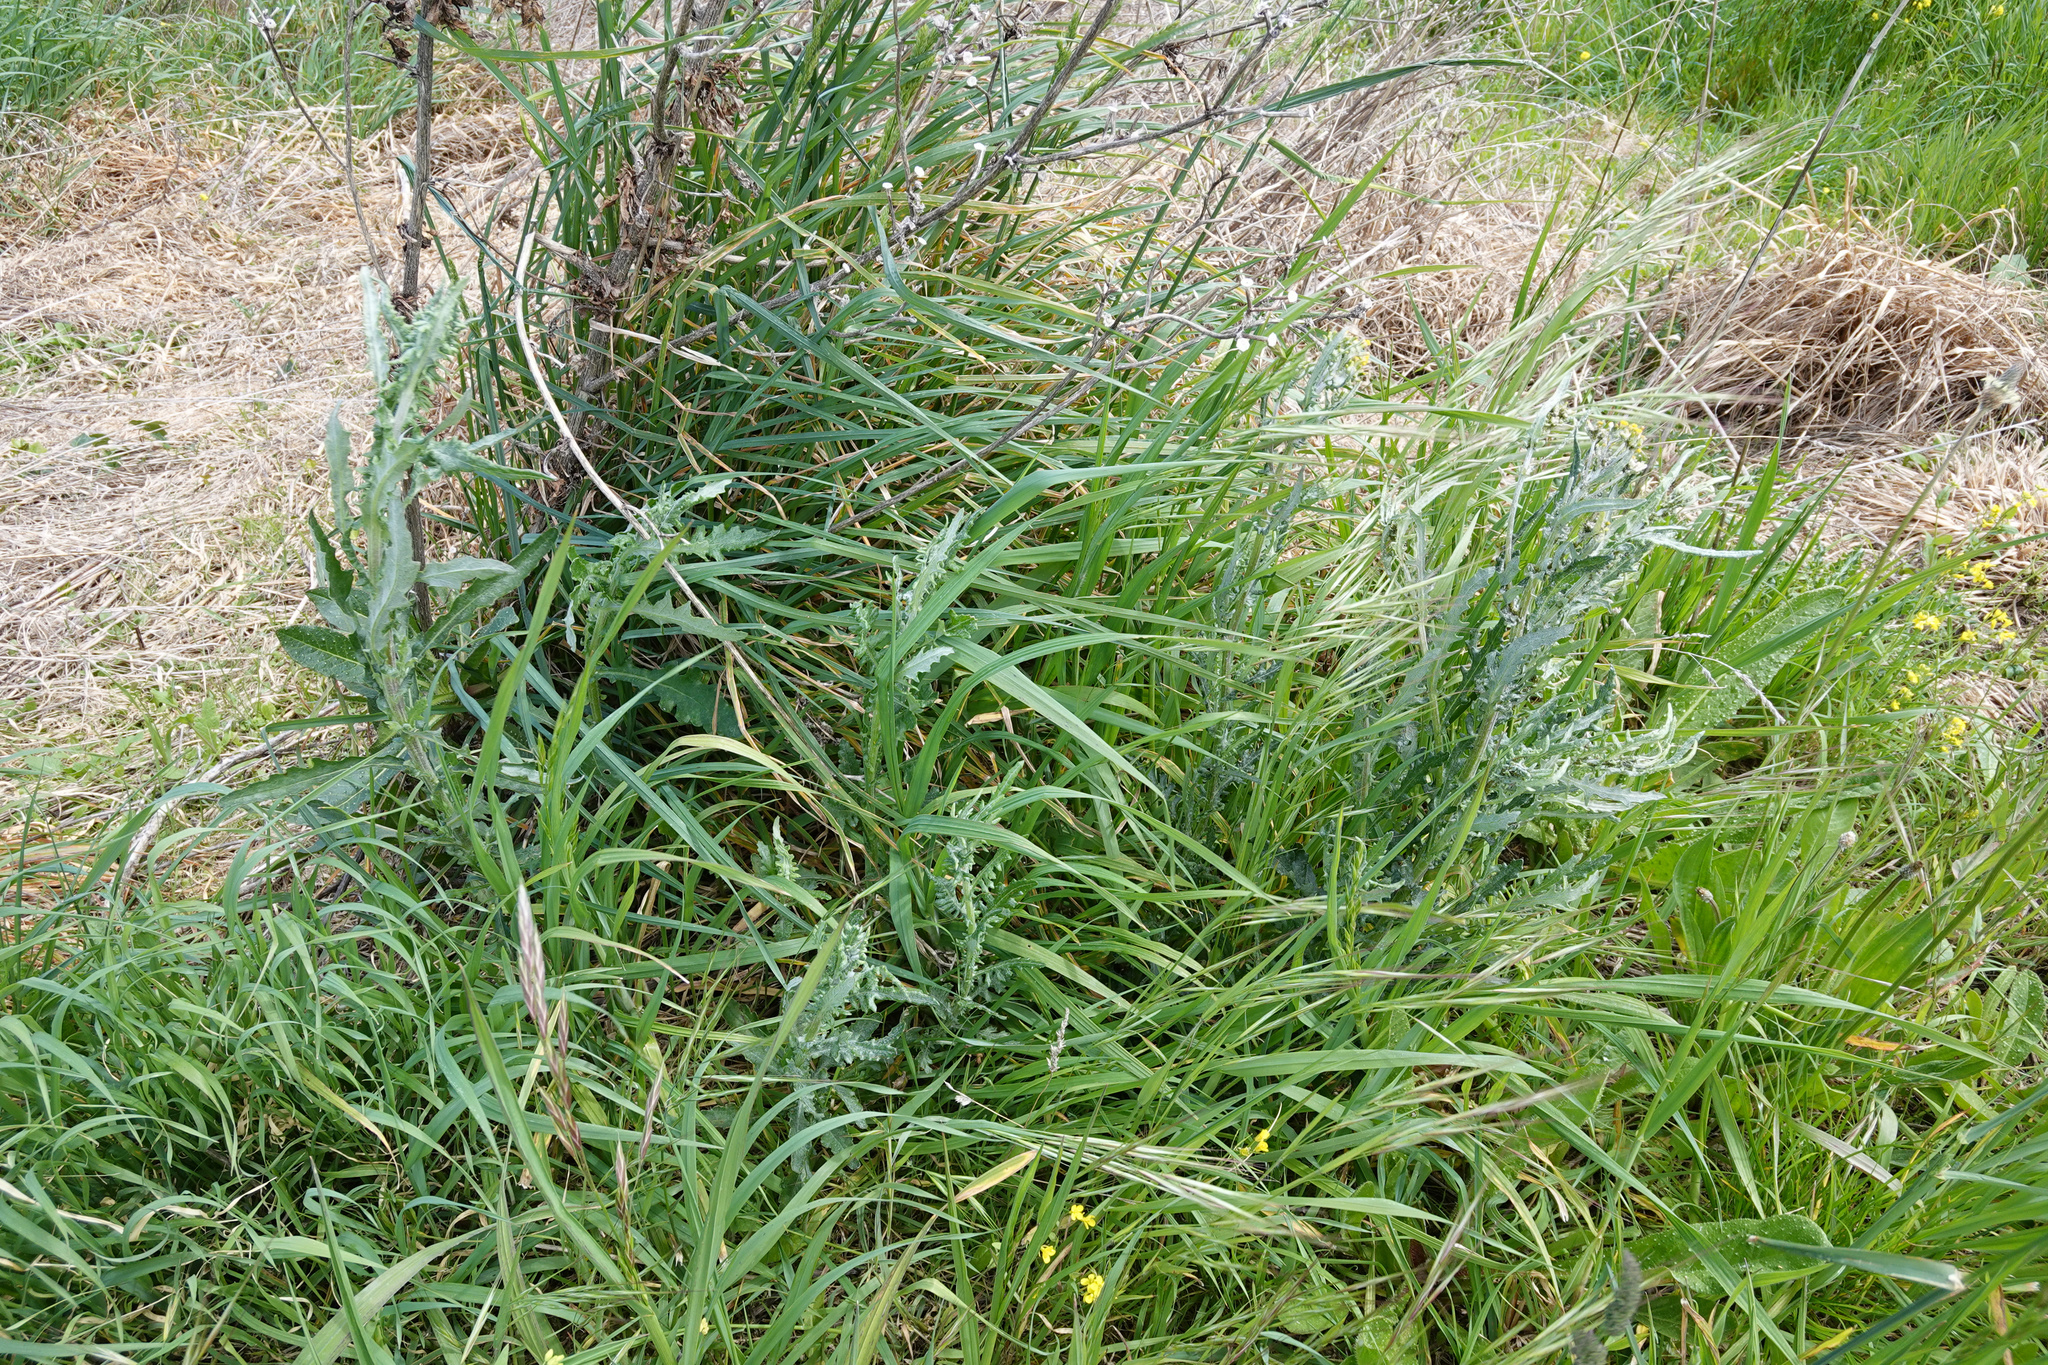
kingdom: Plantae
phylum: Tracheophyta
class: Magnoliopsida
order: Asterales
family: Asteraceae
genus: Senecio
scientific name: Senecio glomeratus
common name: Cutleaf burnweed
